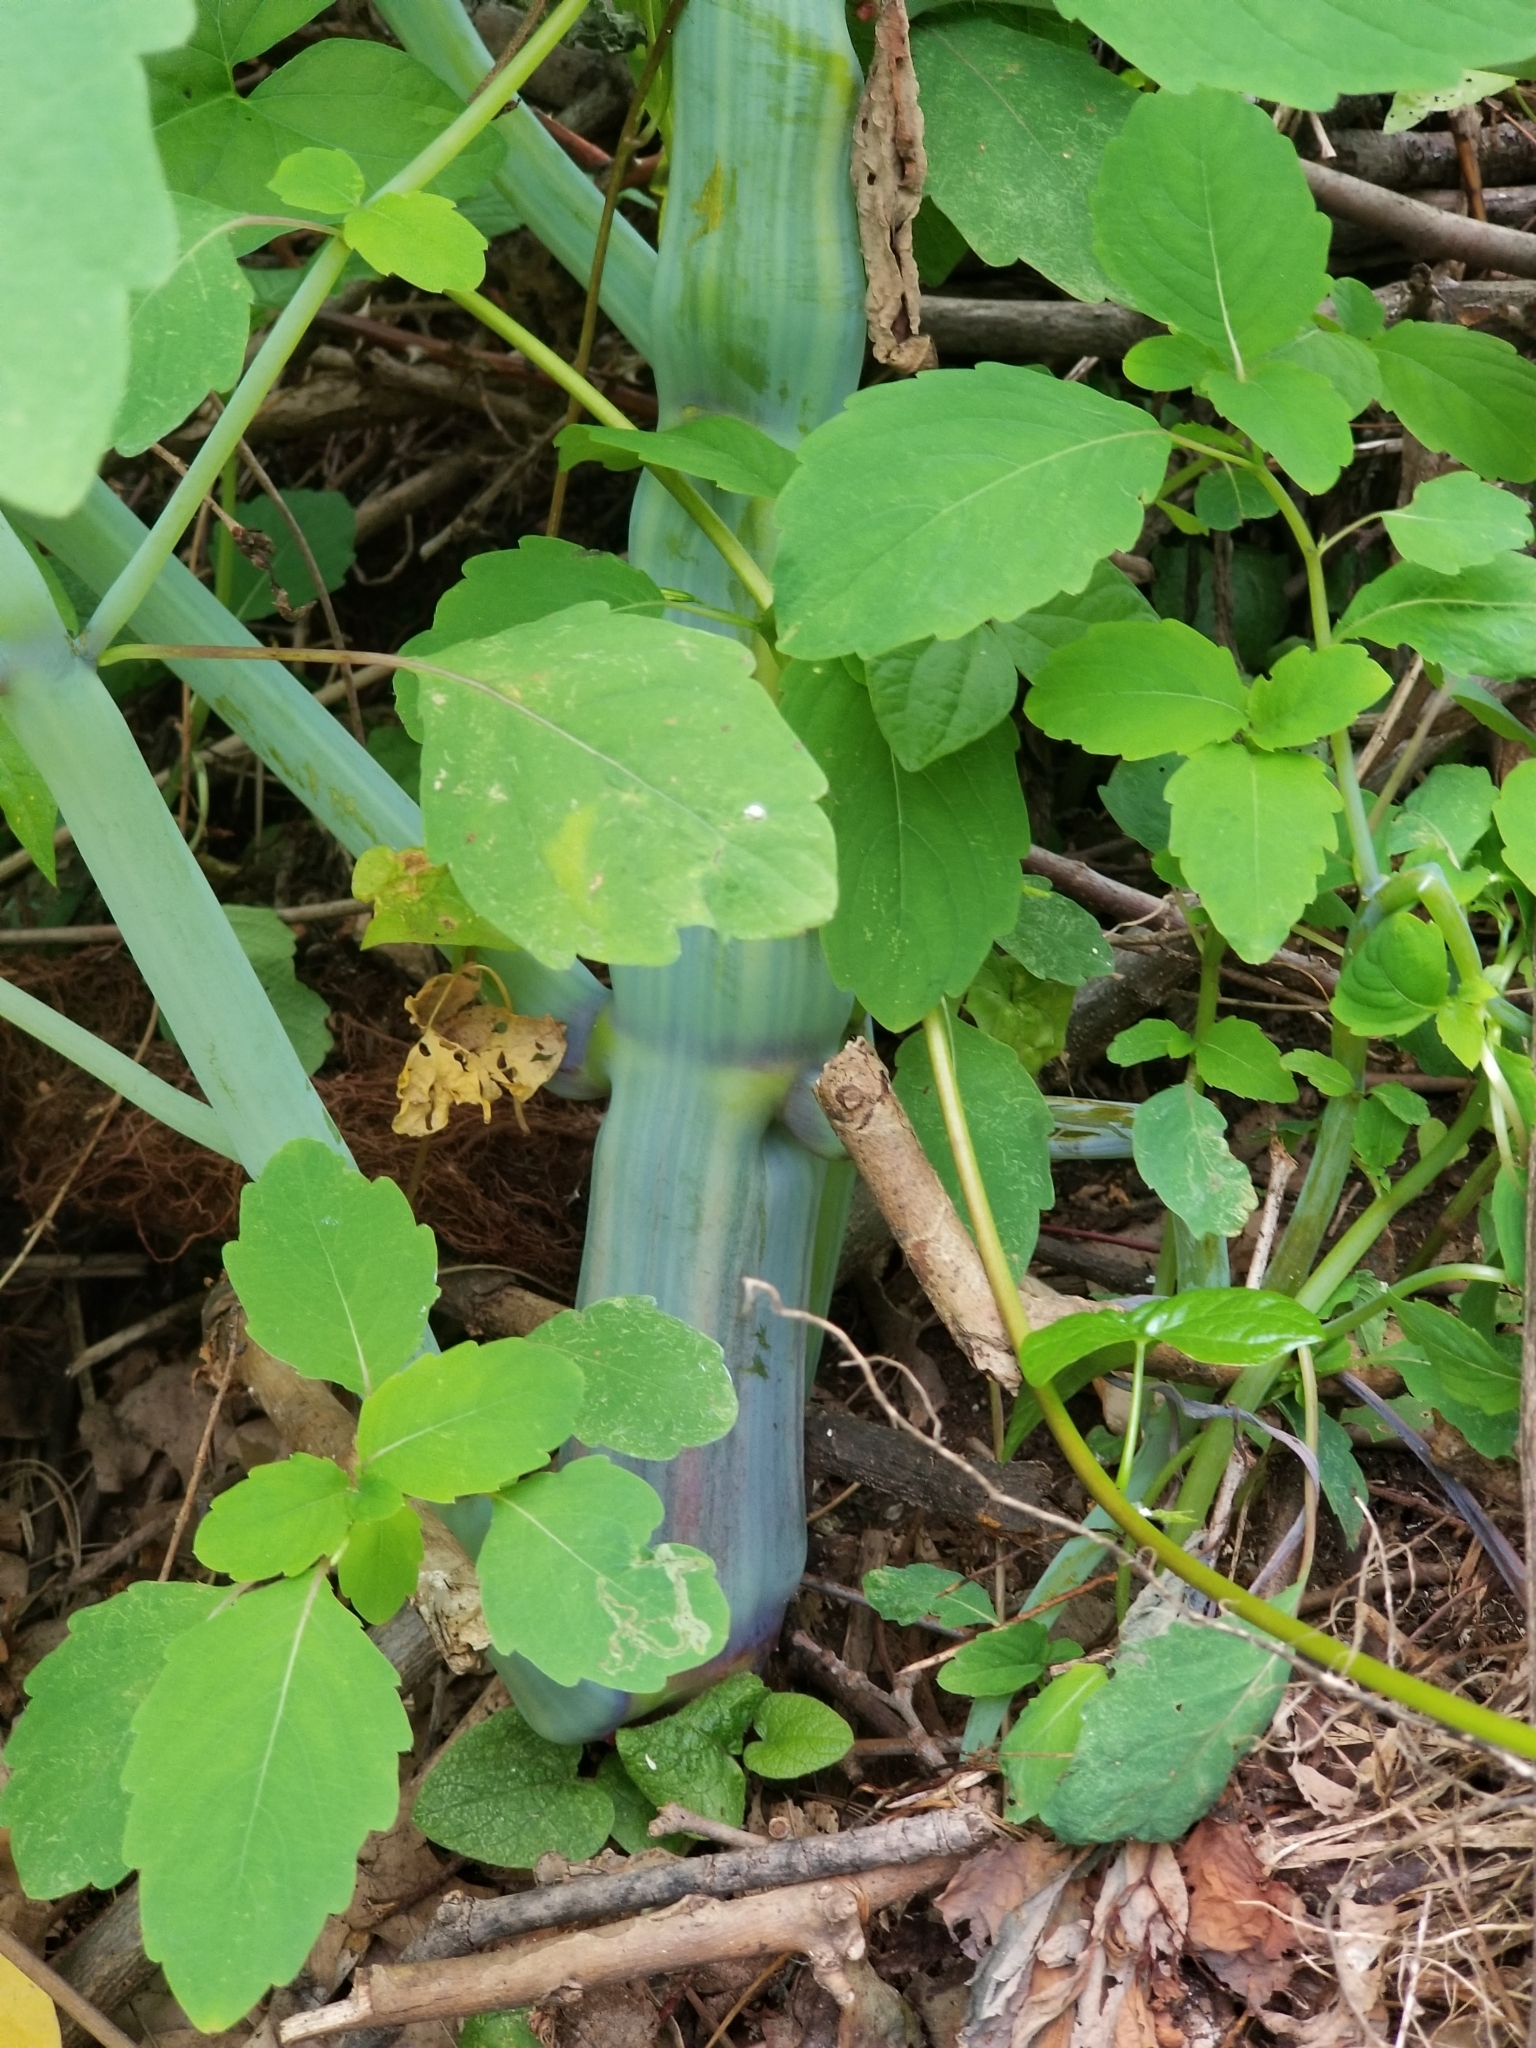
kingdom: Plantae
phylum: Tracheophyta
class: Magnoliopsida
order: Ericales
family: Balsaminaceae
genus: Impatiens
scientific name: Impatiens capensis
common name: Orange balsam
